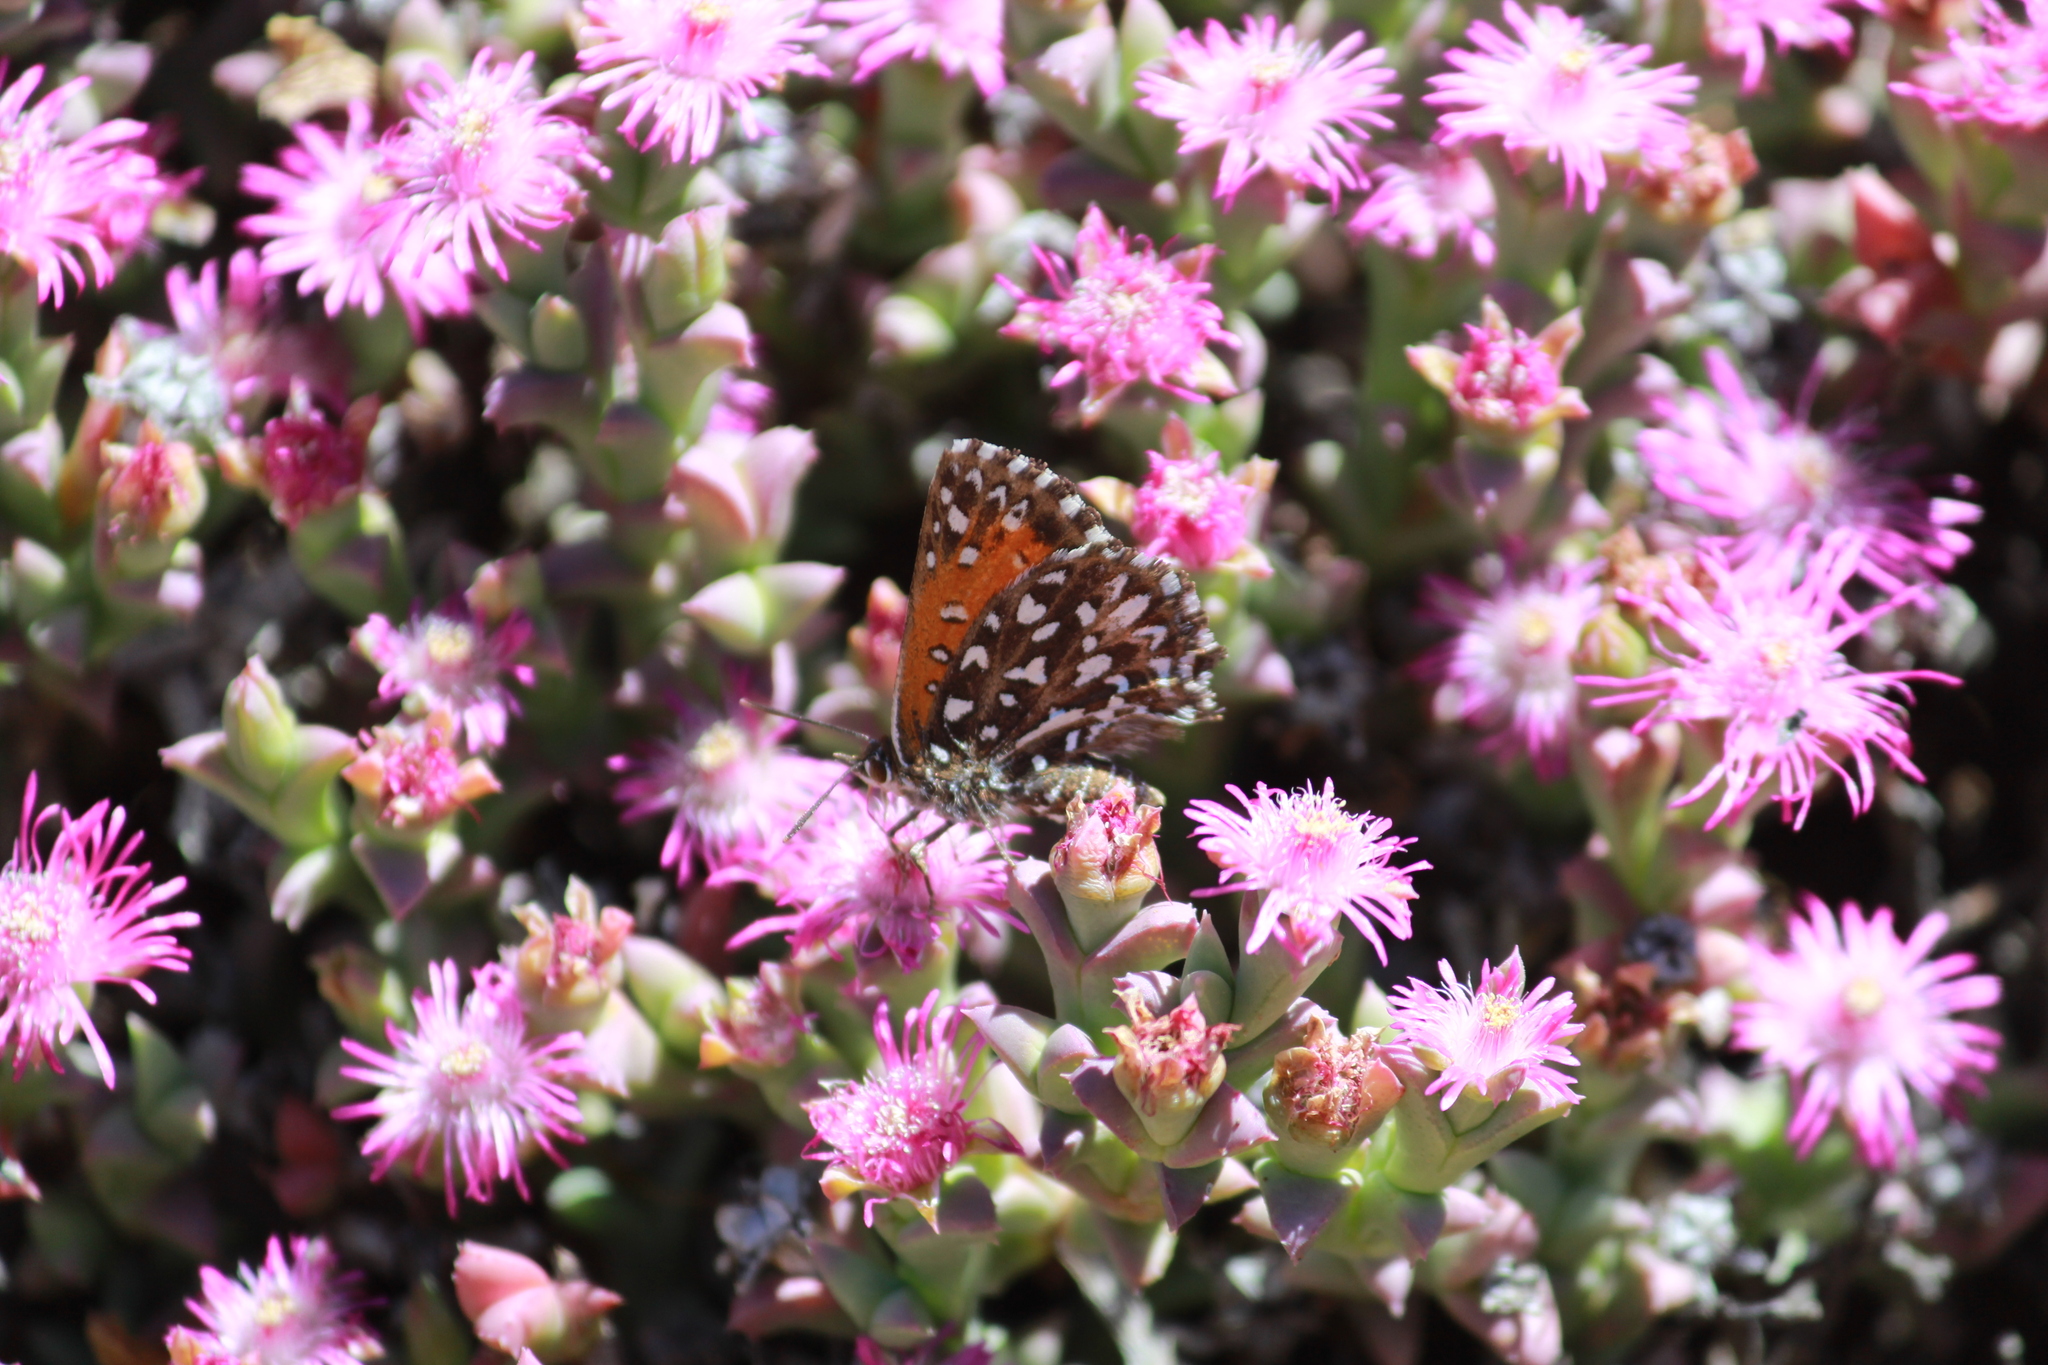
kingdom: Animalia
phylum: Arthropoda
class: Insecta
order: Lepidoptera
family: Lycaenidae
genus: Phasis
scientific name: Phasis macmasteri
